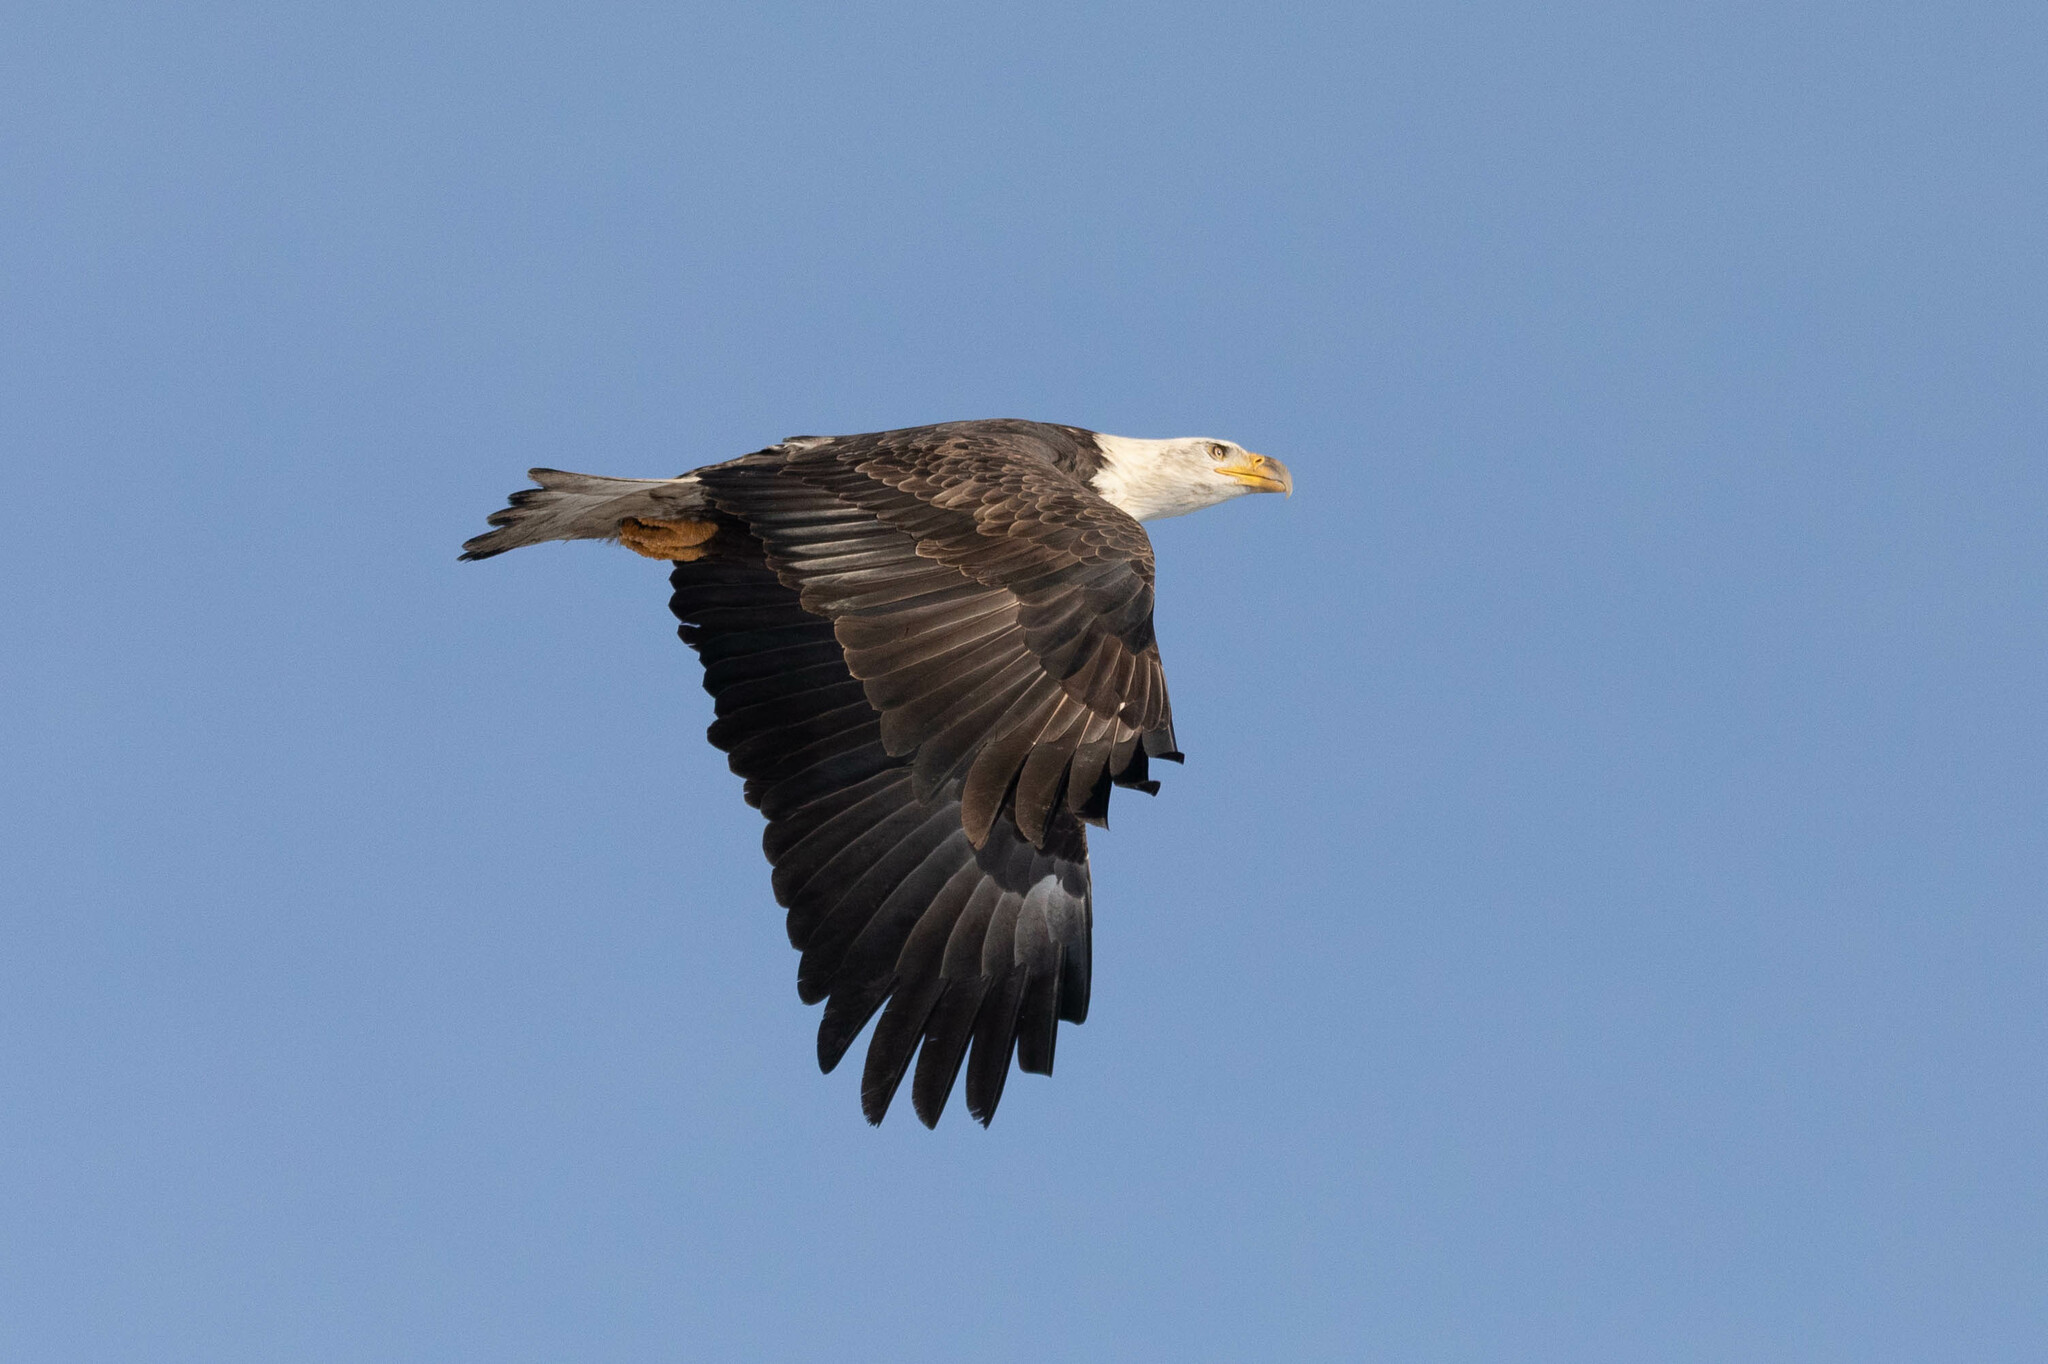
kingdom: Animalia
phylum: Chordata
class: Aves
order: Accipitriformes
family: Accipitridae
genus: Haliaeetus
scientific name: Haliaeetus leucocephalus
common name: Bald eagle
